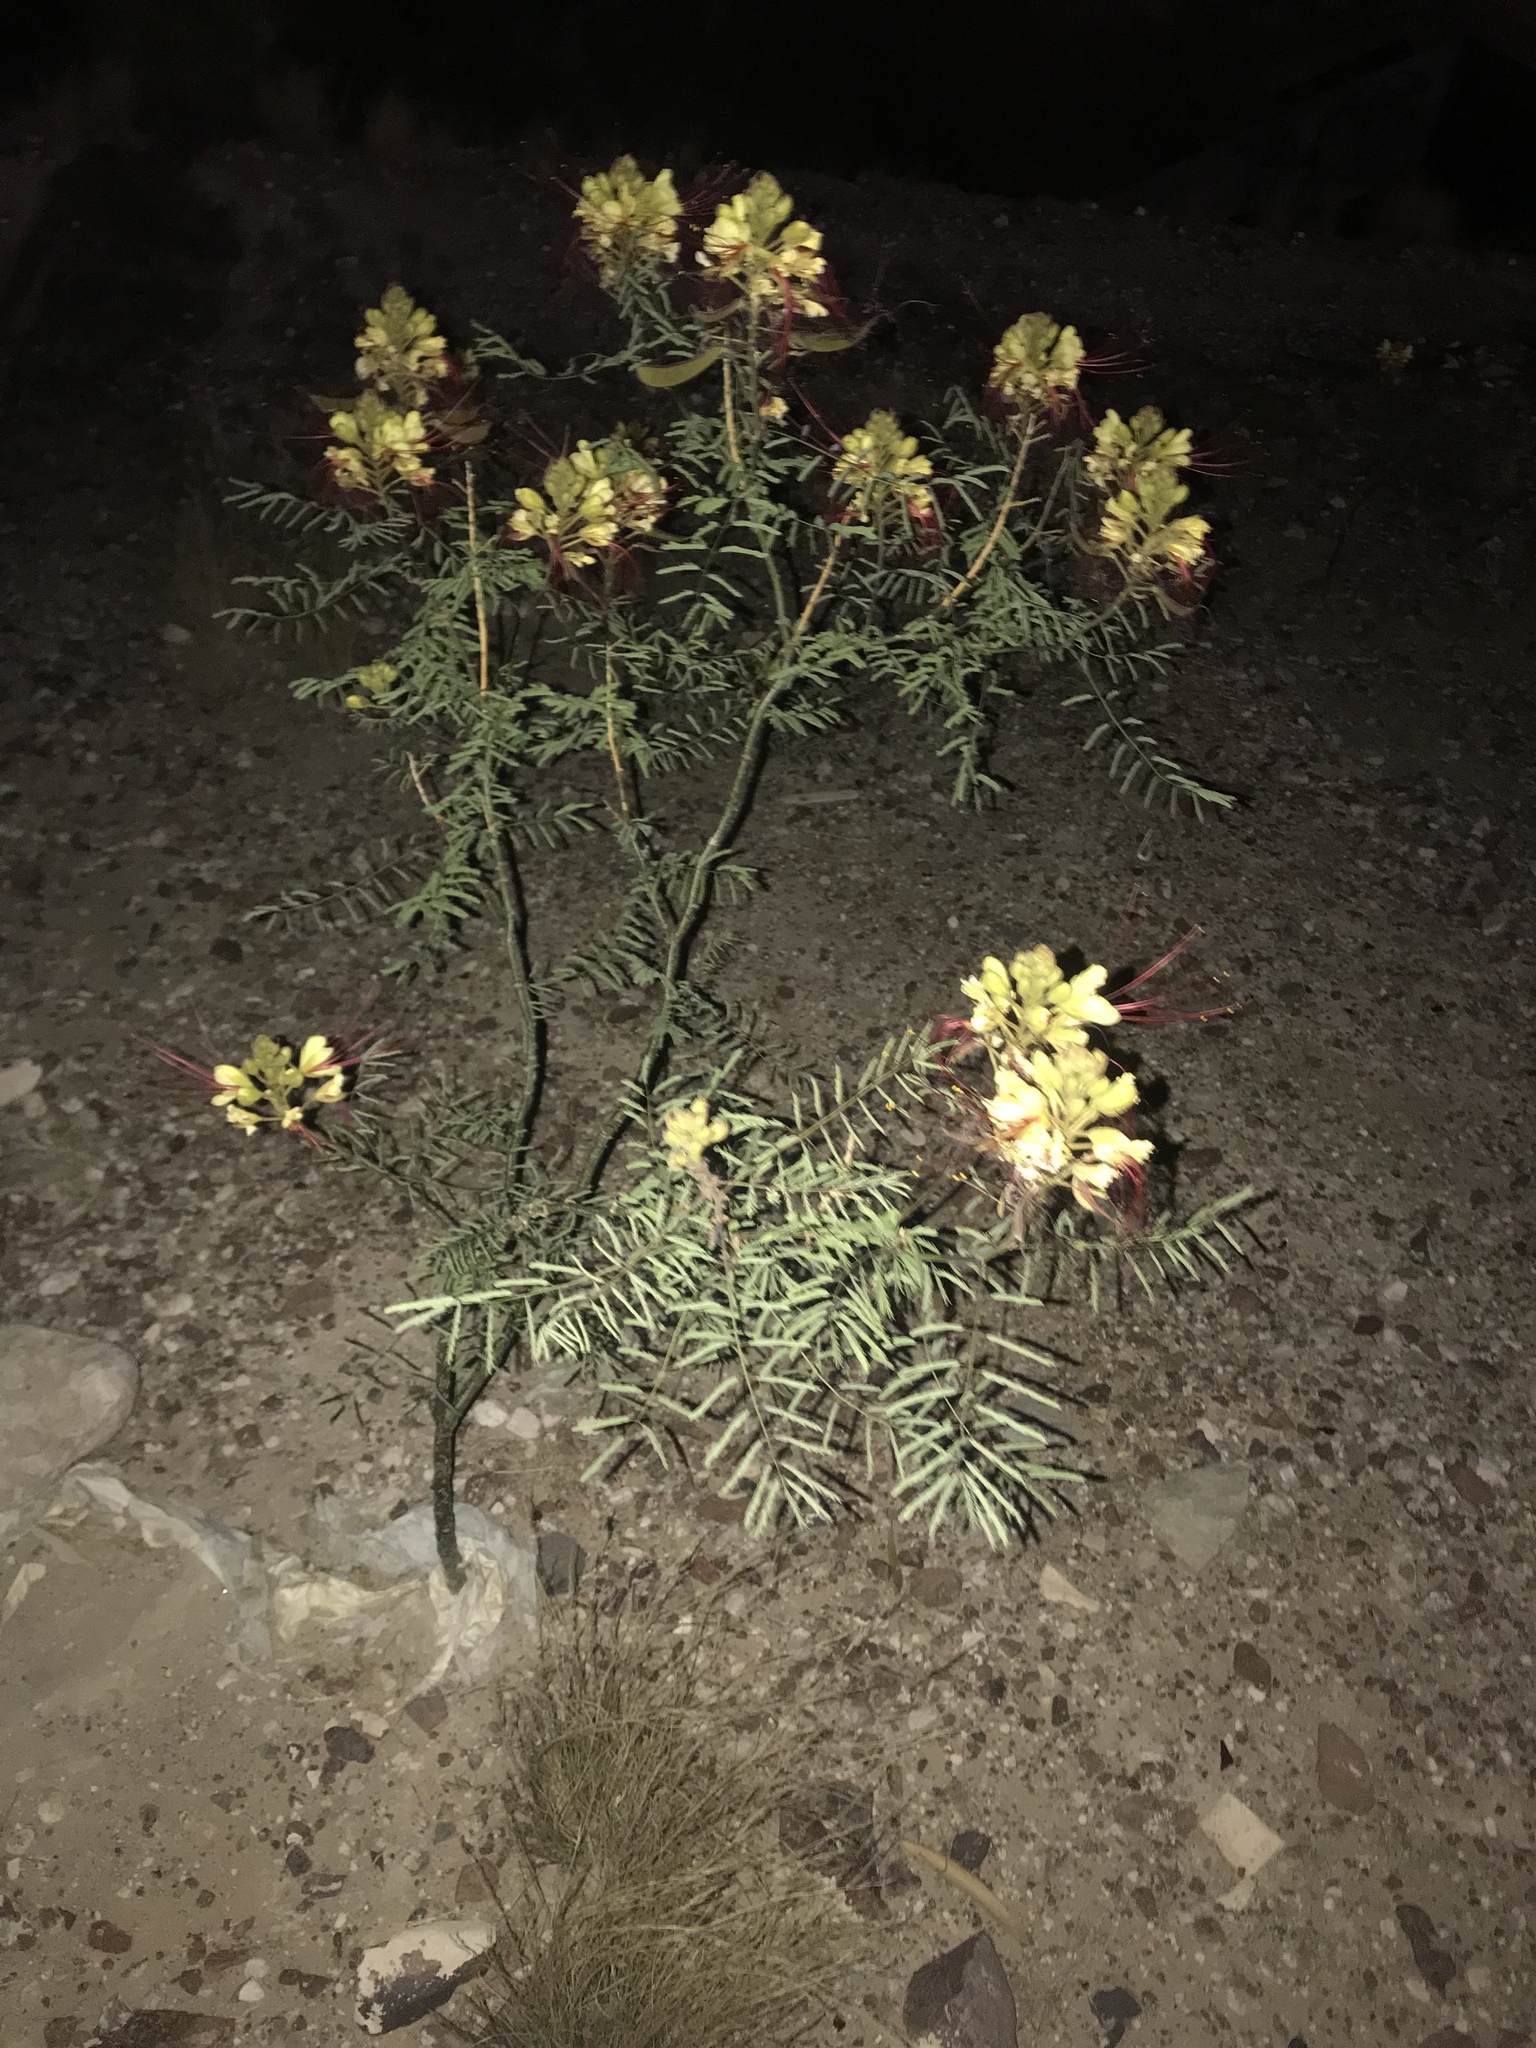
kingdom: Plantae
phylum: Tracheophyta
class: Magnoliopsida
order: Fabales
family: Fabaceae
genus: Erythrostemon
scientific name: Erythrostemon gilliesii
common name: Bird-of-paradise shrub
